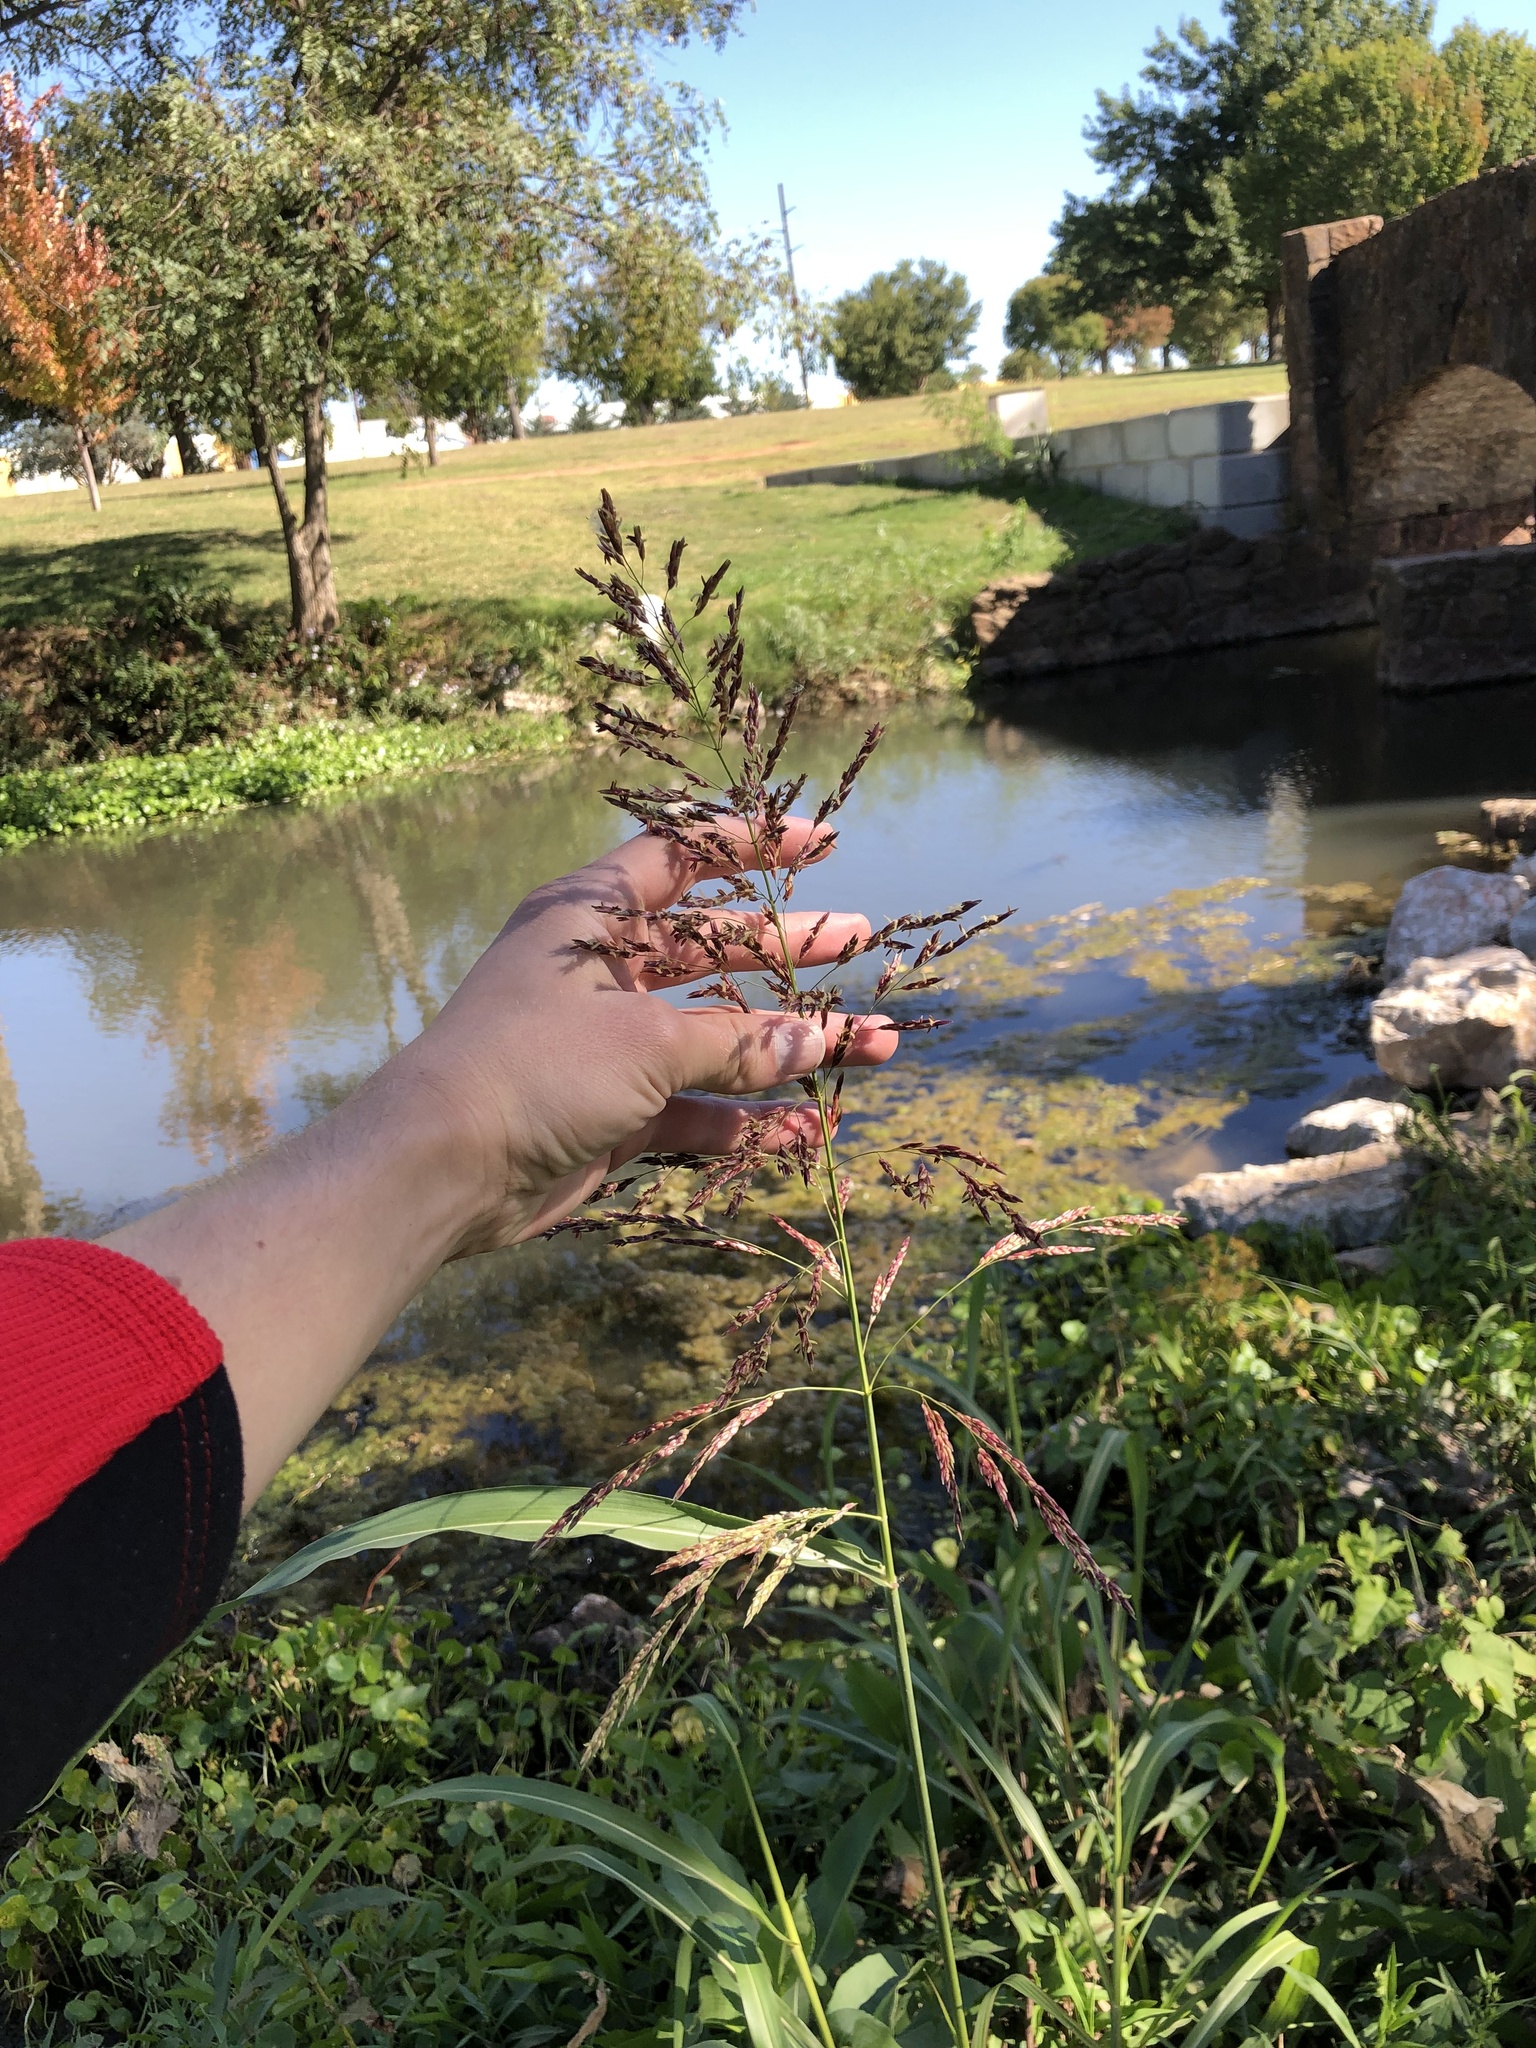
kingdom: Plantae
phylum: Tracheophyta
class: Liliopsida
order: Poales
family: Poaceae
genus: Sorghum
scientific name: Sorghum halepense
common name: Johnson-grass
